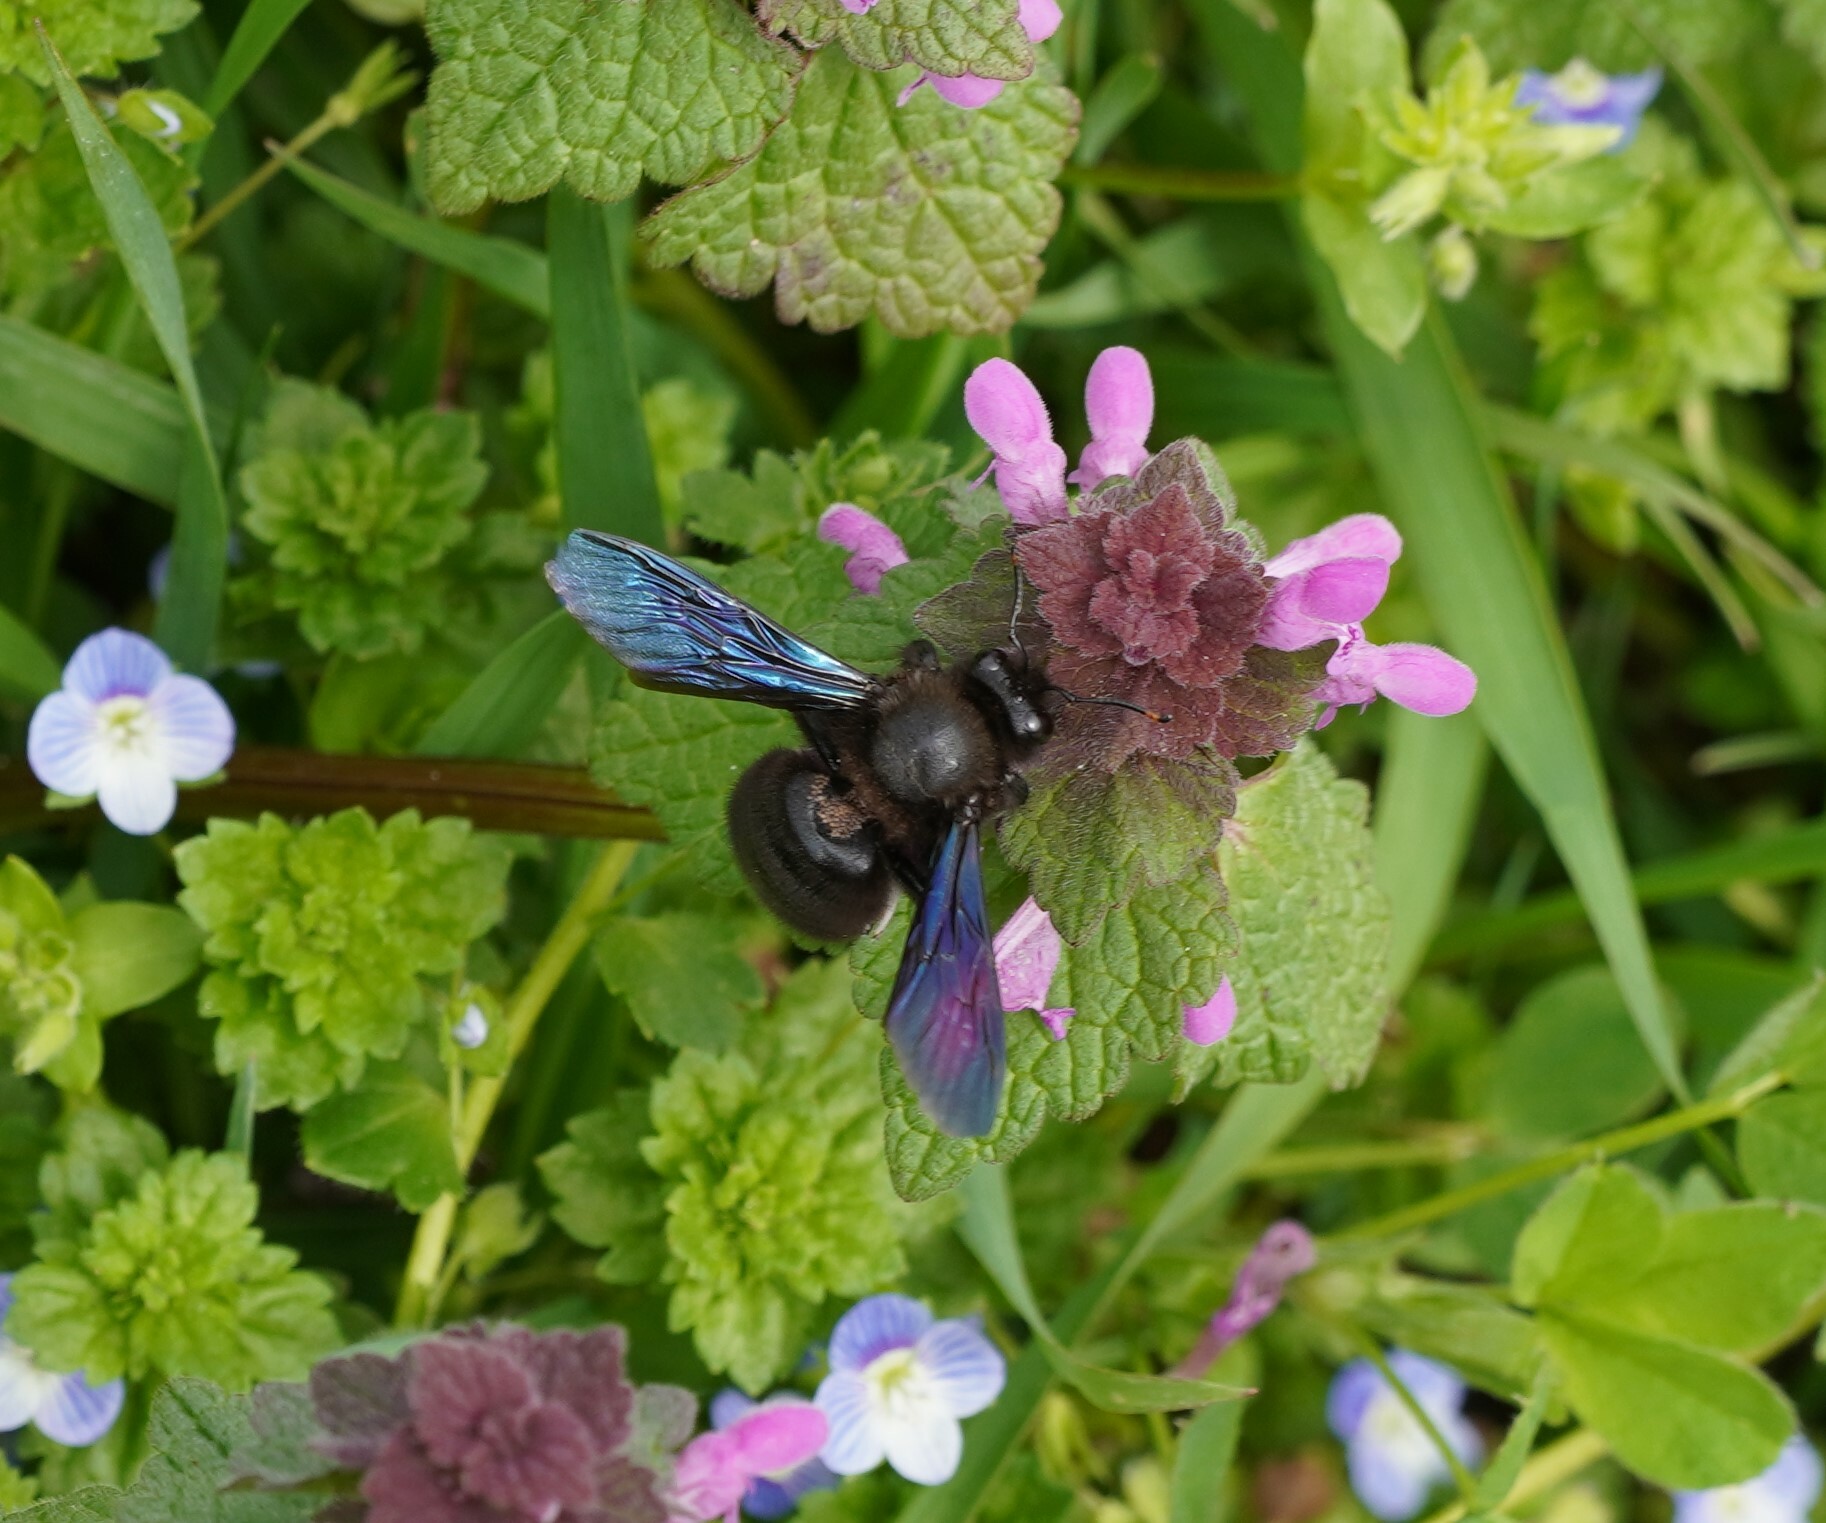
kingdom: Animalia
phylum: Arthropoda
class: Insecta
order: Hymenoptera
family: Apidae
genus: Xylocopa
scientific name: Xylocopa violacea
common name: Violet carpenter bee
